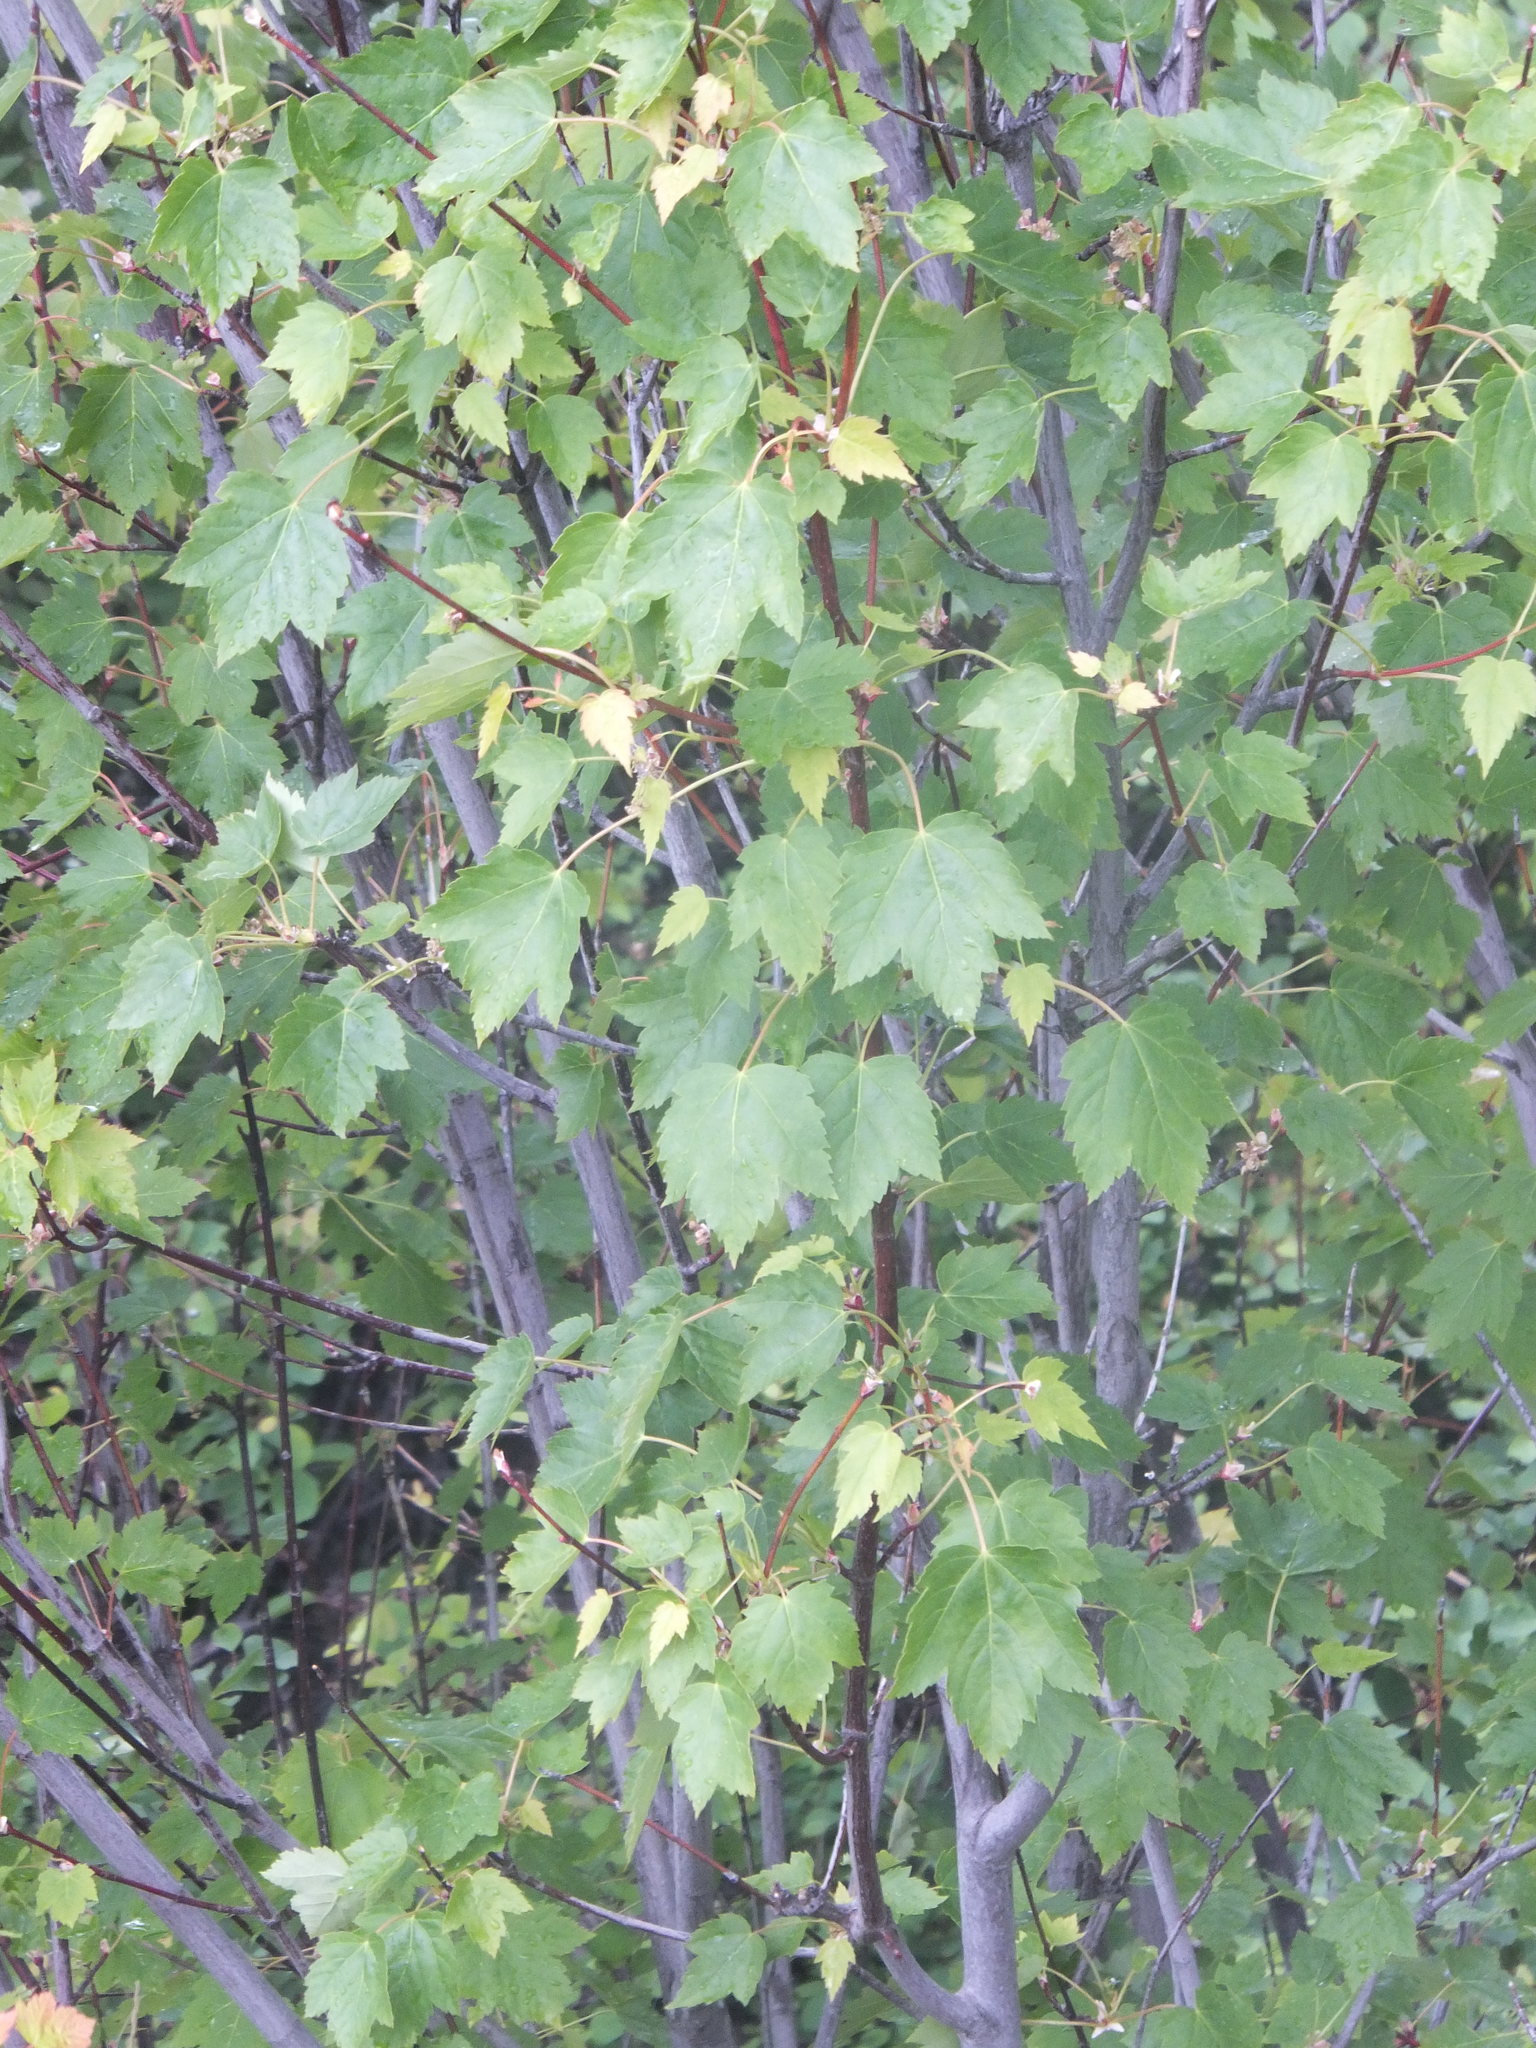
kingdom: Plantae
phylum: Tracheophyta
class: Magnoliopsida
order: Sapindales
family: Sapindaceae
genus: Acer
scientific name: Acer glabrum
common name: Rocky mountain maple
